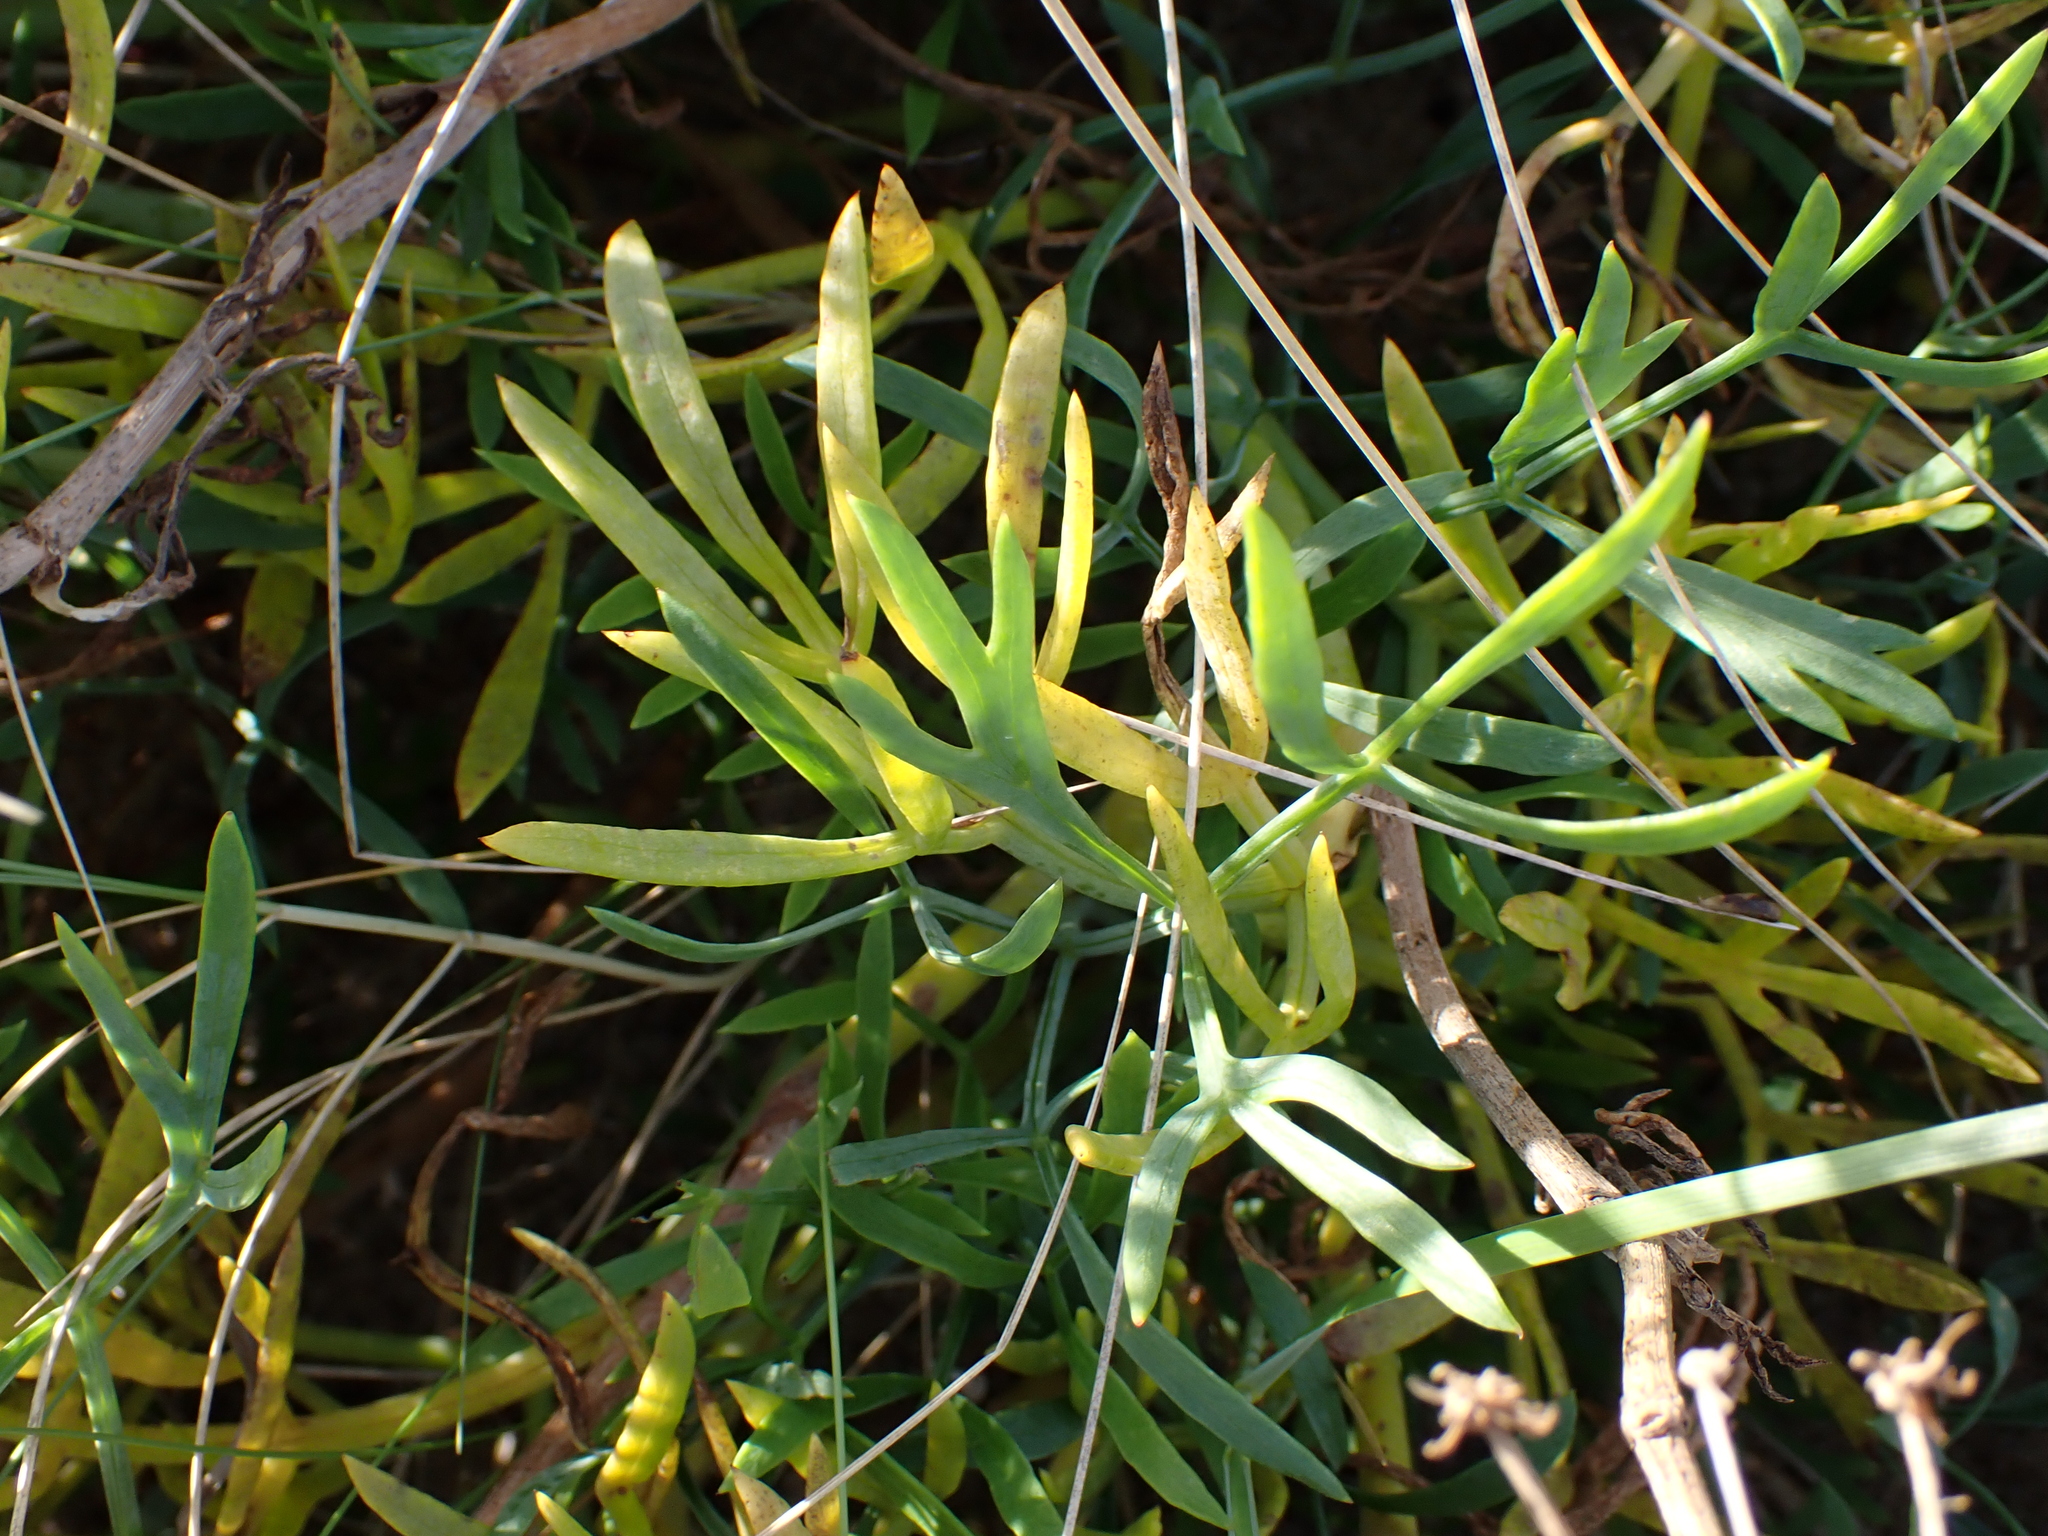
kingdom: Plantae
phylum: Tracheophyta
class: Magnoliopsida
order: Apiales
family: Apiaceae
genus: Crithmum
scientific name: Crithmum maritimum
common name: Rock samphire
